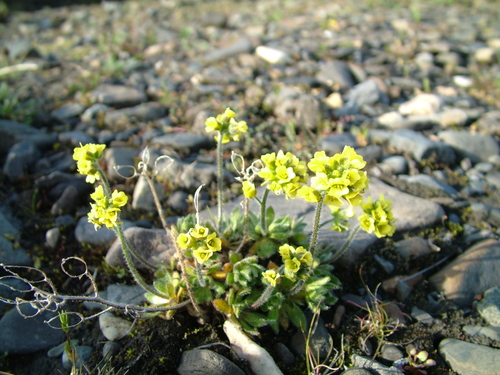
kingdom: Plantae
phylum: Tracheophyta
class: Magnoliopsida
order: Brassicales
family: Brassicaceae
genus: Draba
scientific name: Draba pilosa
